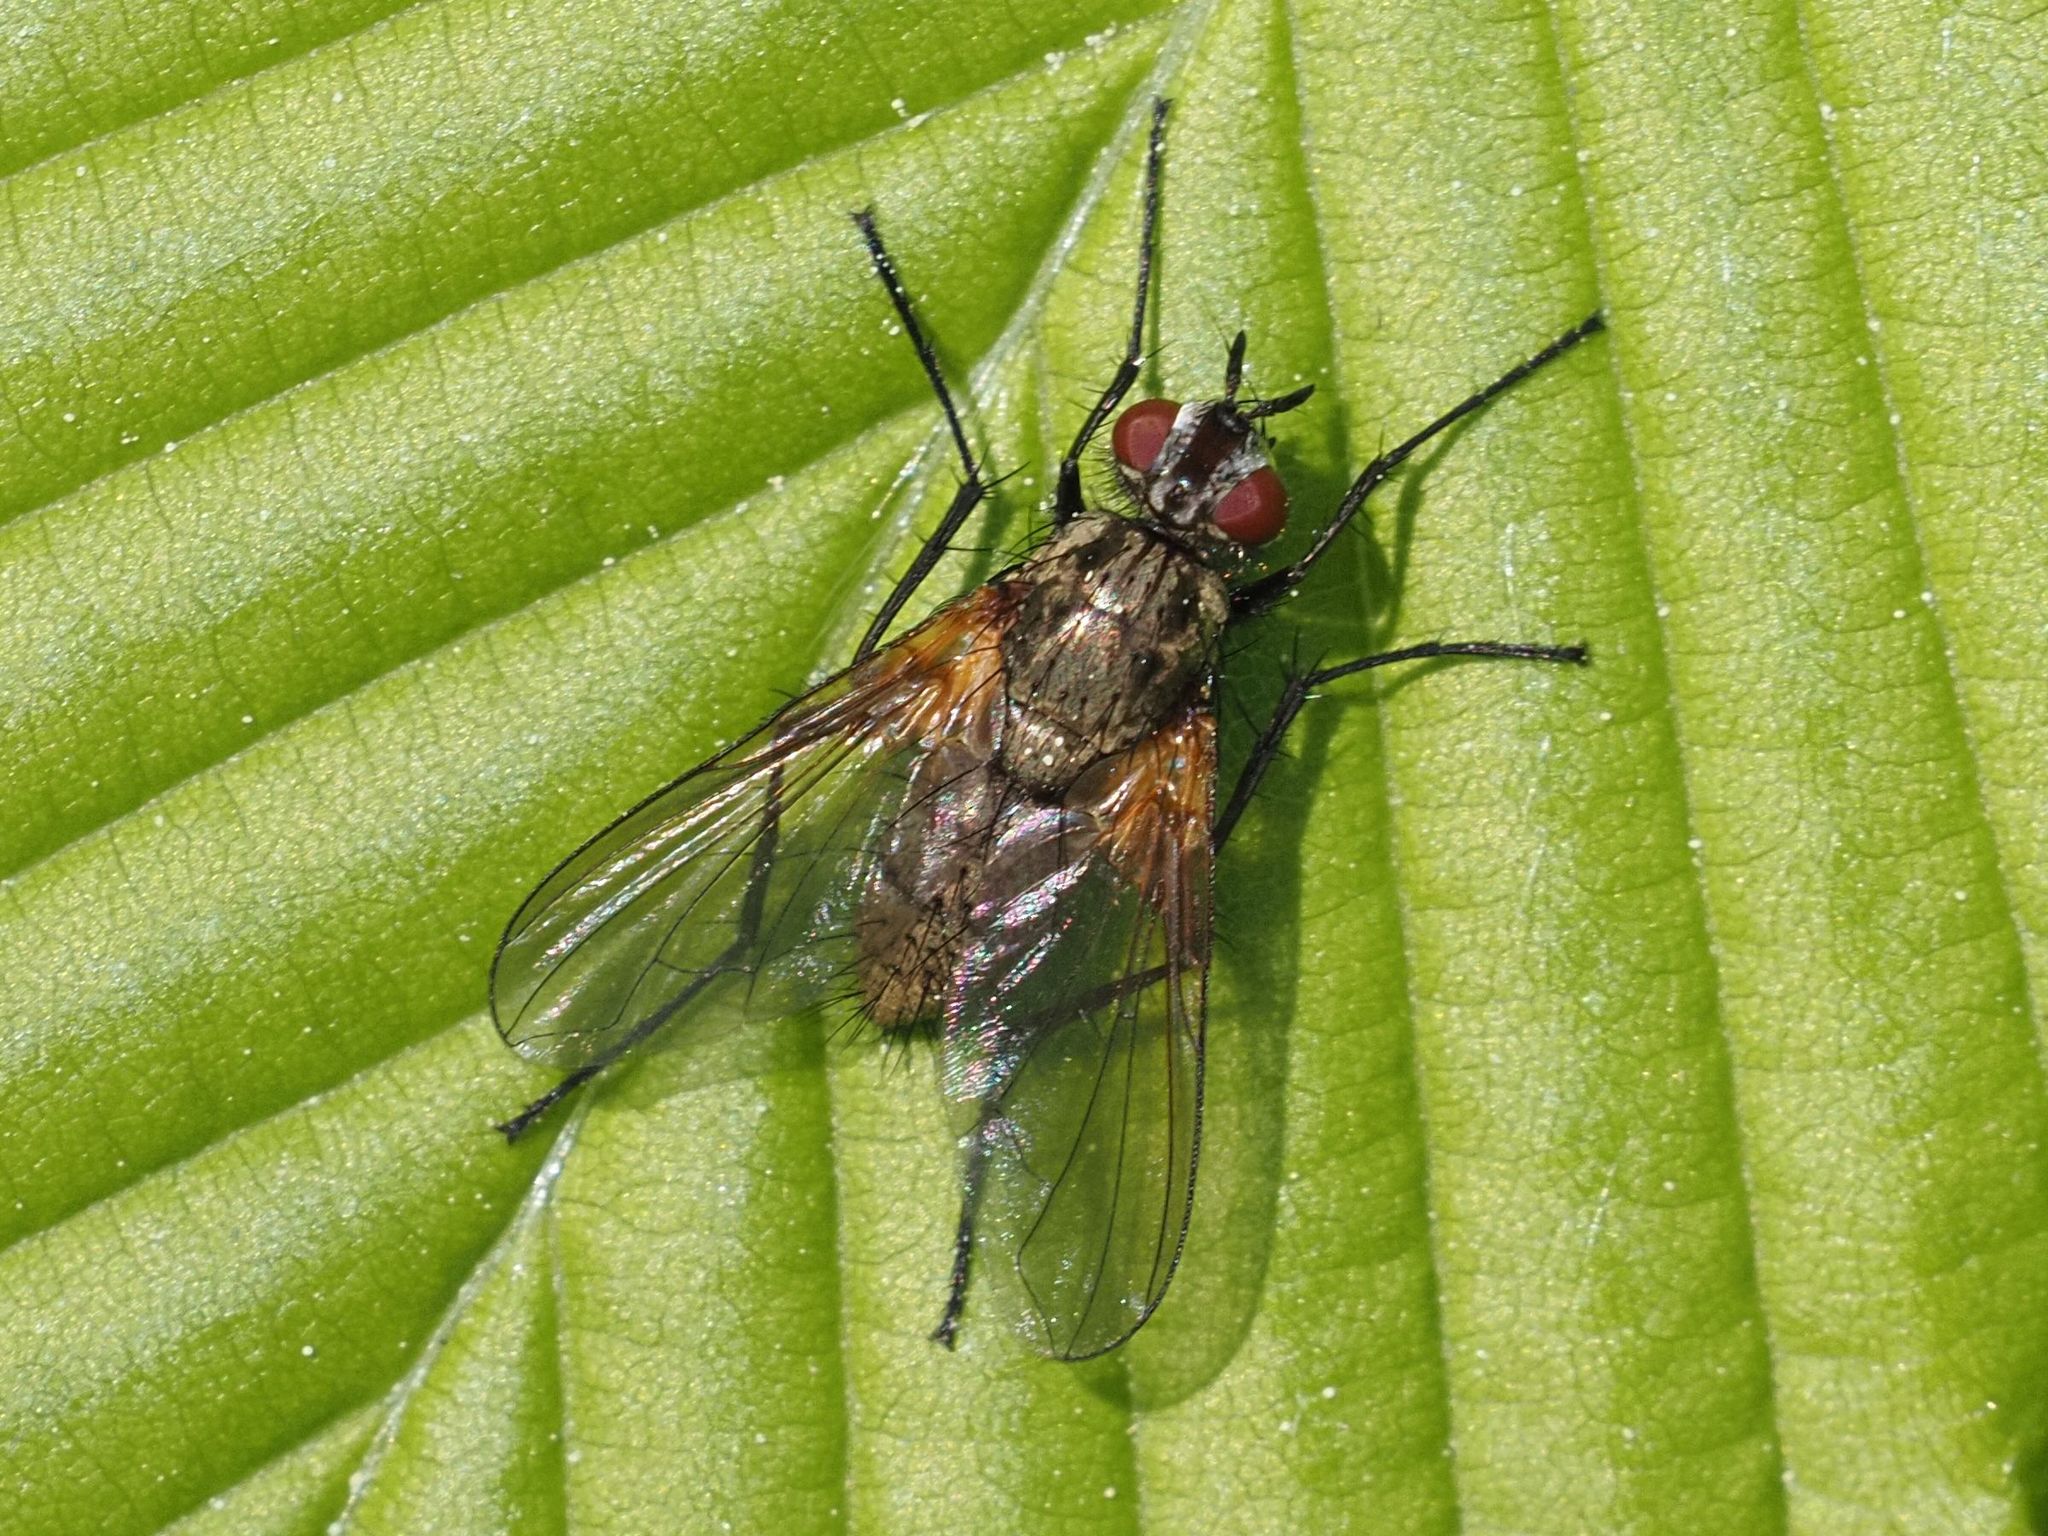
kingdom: Animalia
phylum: Arthropoda
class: Insecta
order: Diptera
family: Tachinidae
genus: Macquartia
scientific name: Macquartia grisea
